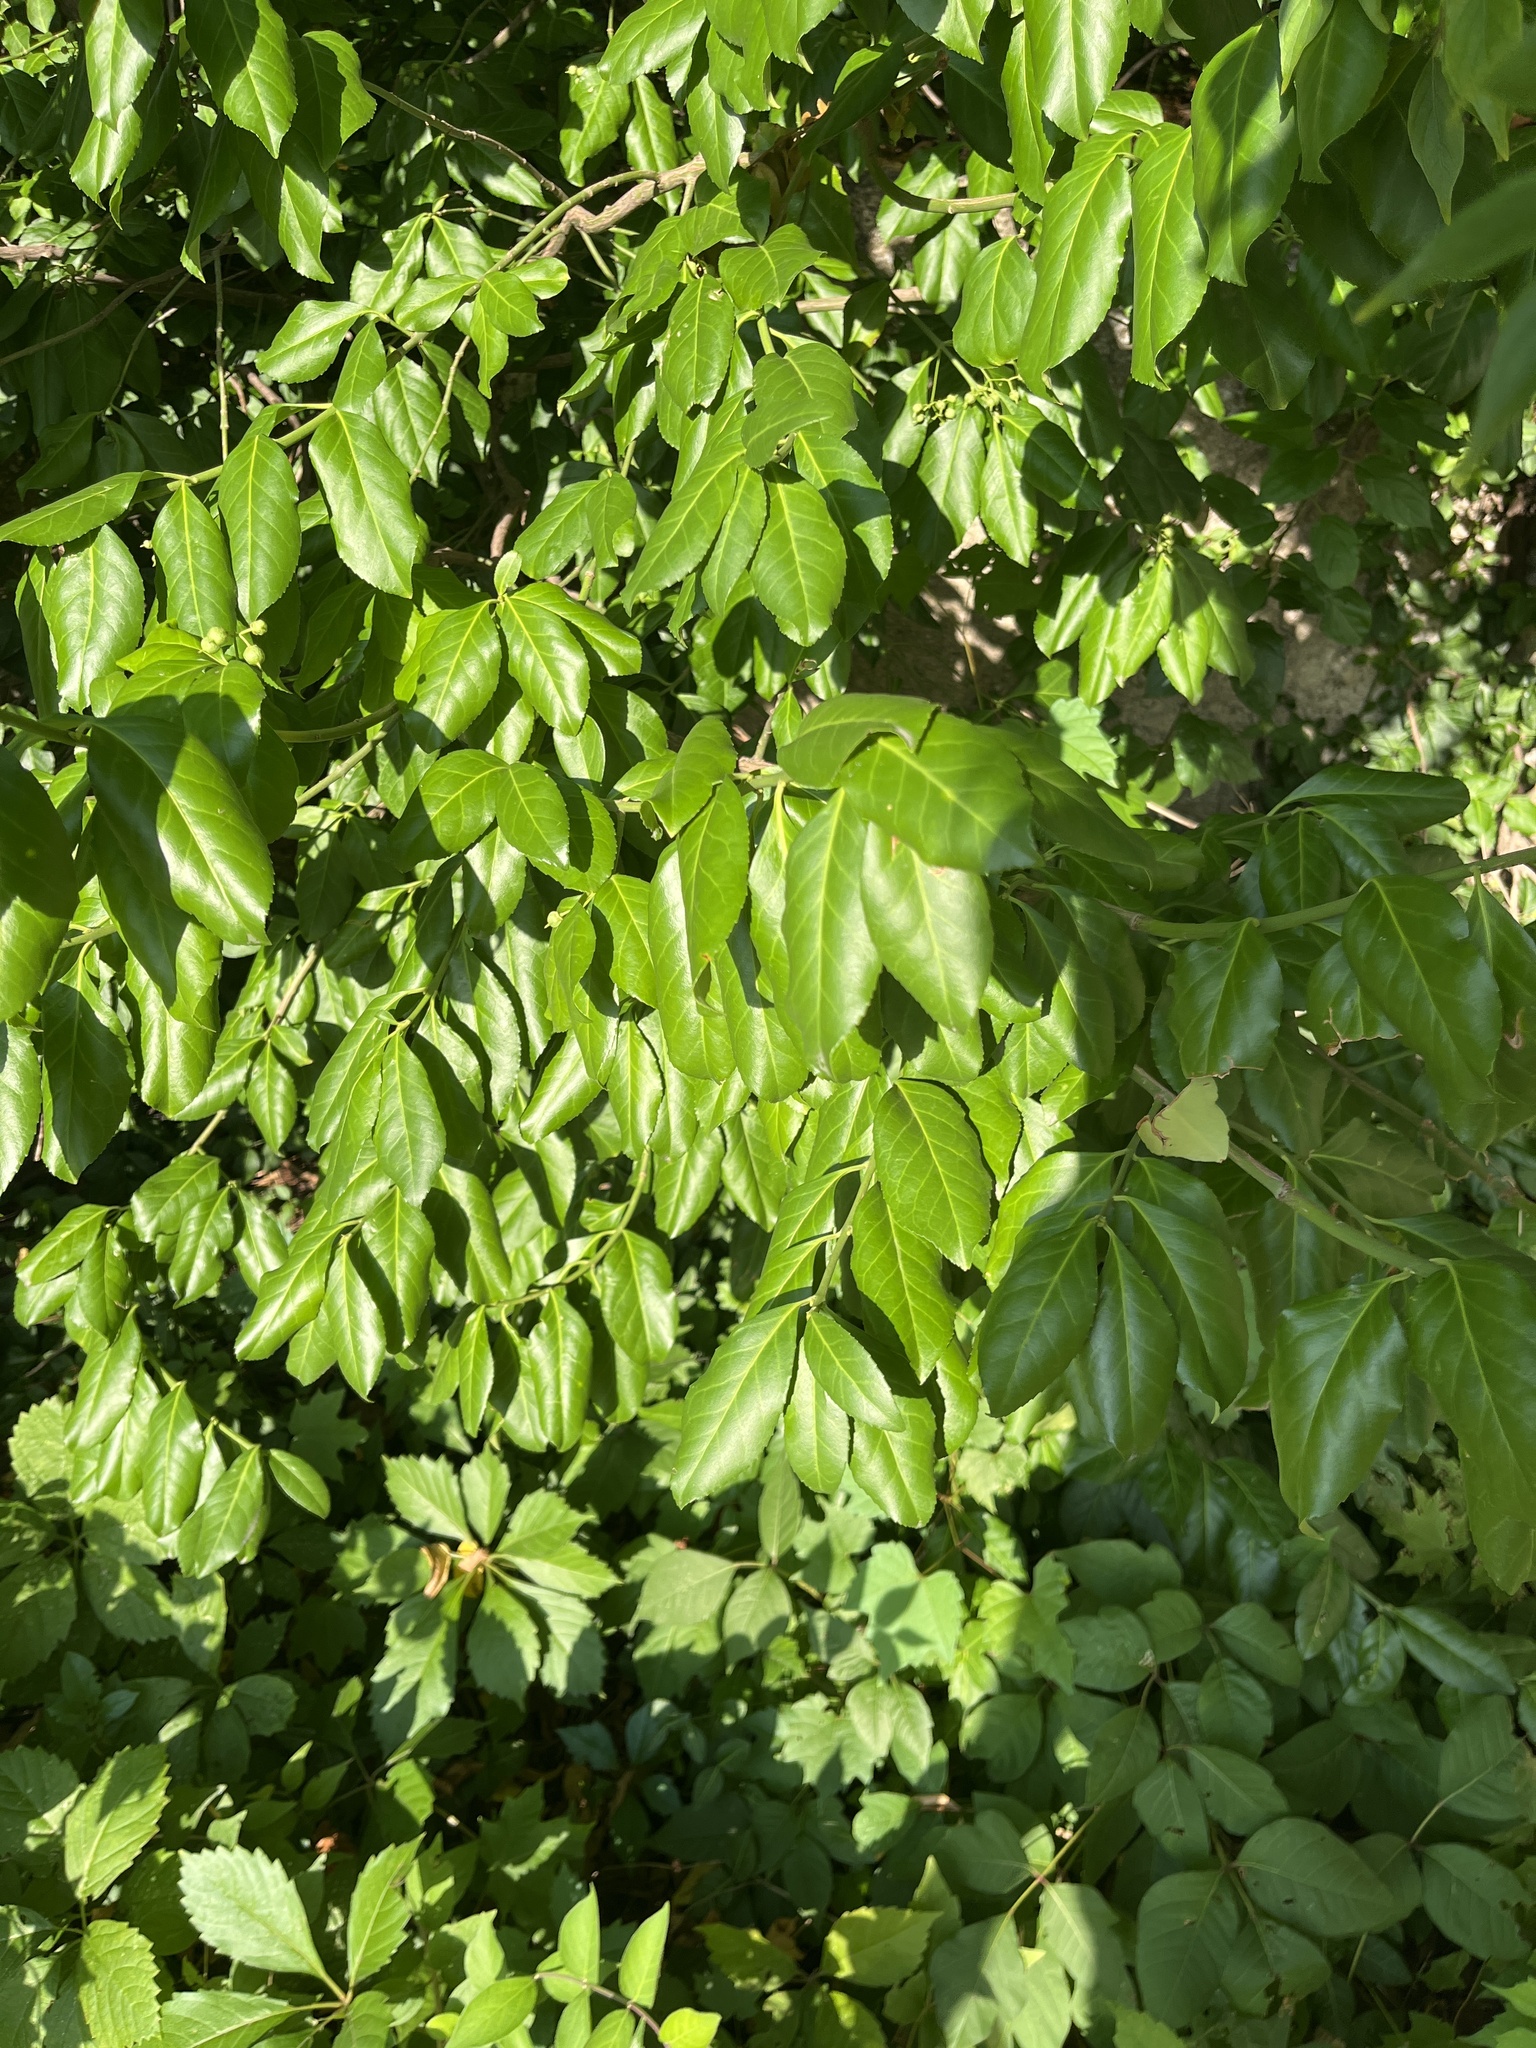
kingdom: Plantae
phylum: Tracheophyta
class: Magnoliopsida
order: Celastrales
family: Celastraceae
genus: Euonymus
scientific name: Euonymus fortunei
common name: Climbing euonymus
